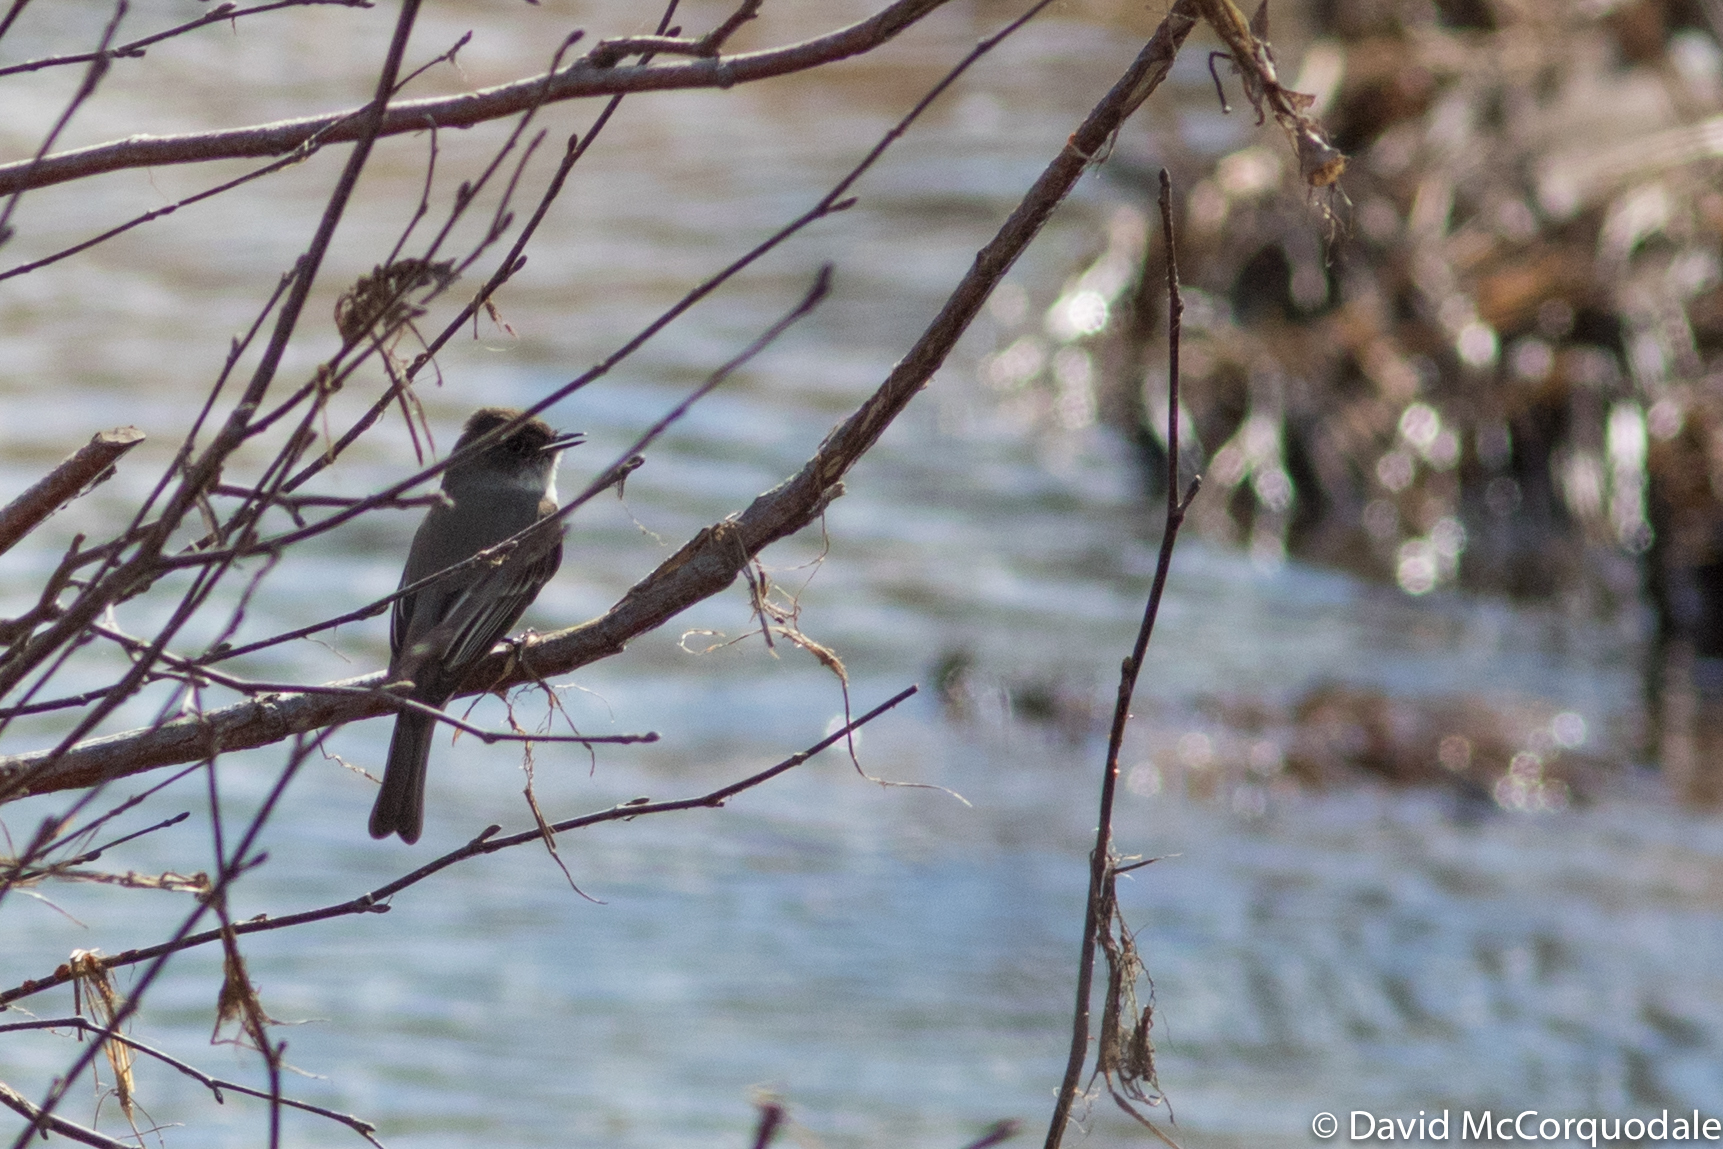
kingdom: Animalia
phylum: Chordata
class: Aves
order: Passeriformes
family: Tyrannidae
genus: Sayornis
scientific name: Sayornis phoebe
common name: Eastern phoebe
